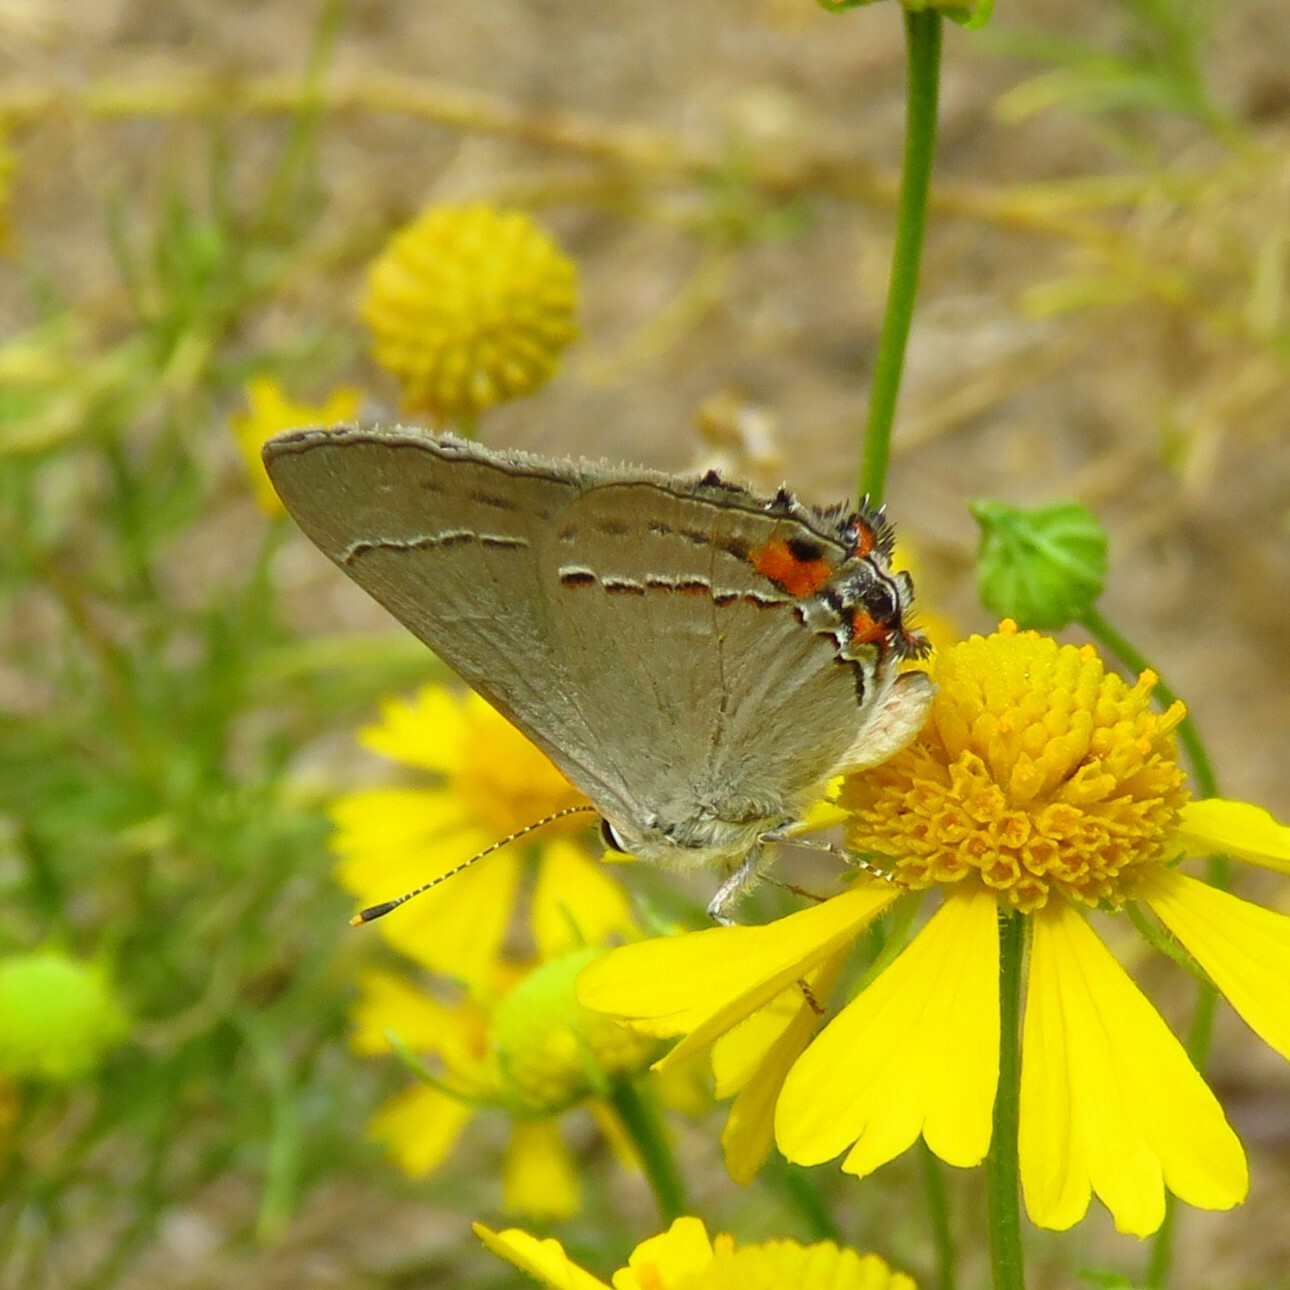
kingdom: Animalia
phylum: Arthropoda
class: Insecta
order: Lepidoptera
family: Lycaenidae
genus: Strymon
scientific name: Strymon melinus
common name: Gray hairstreak
